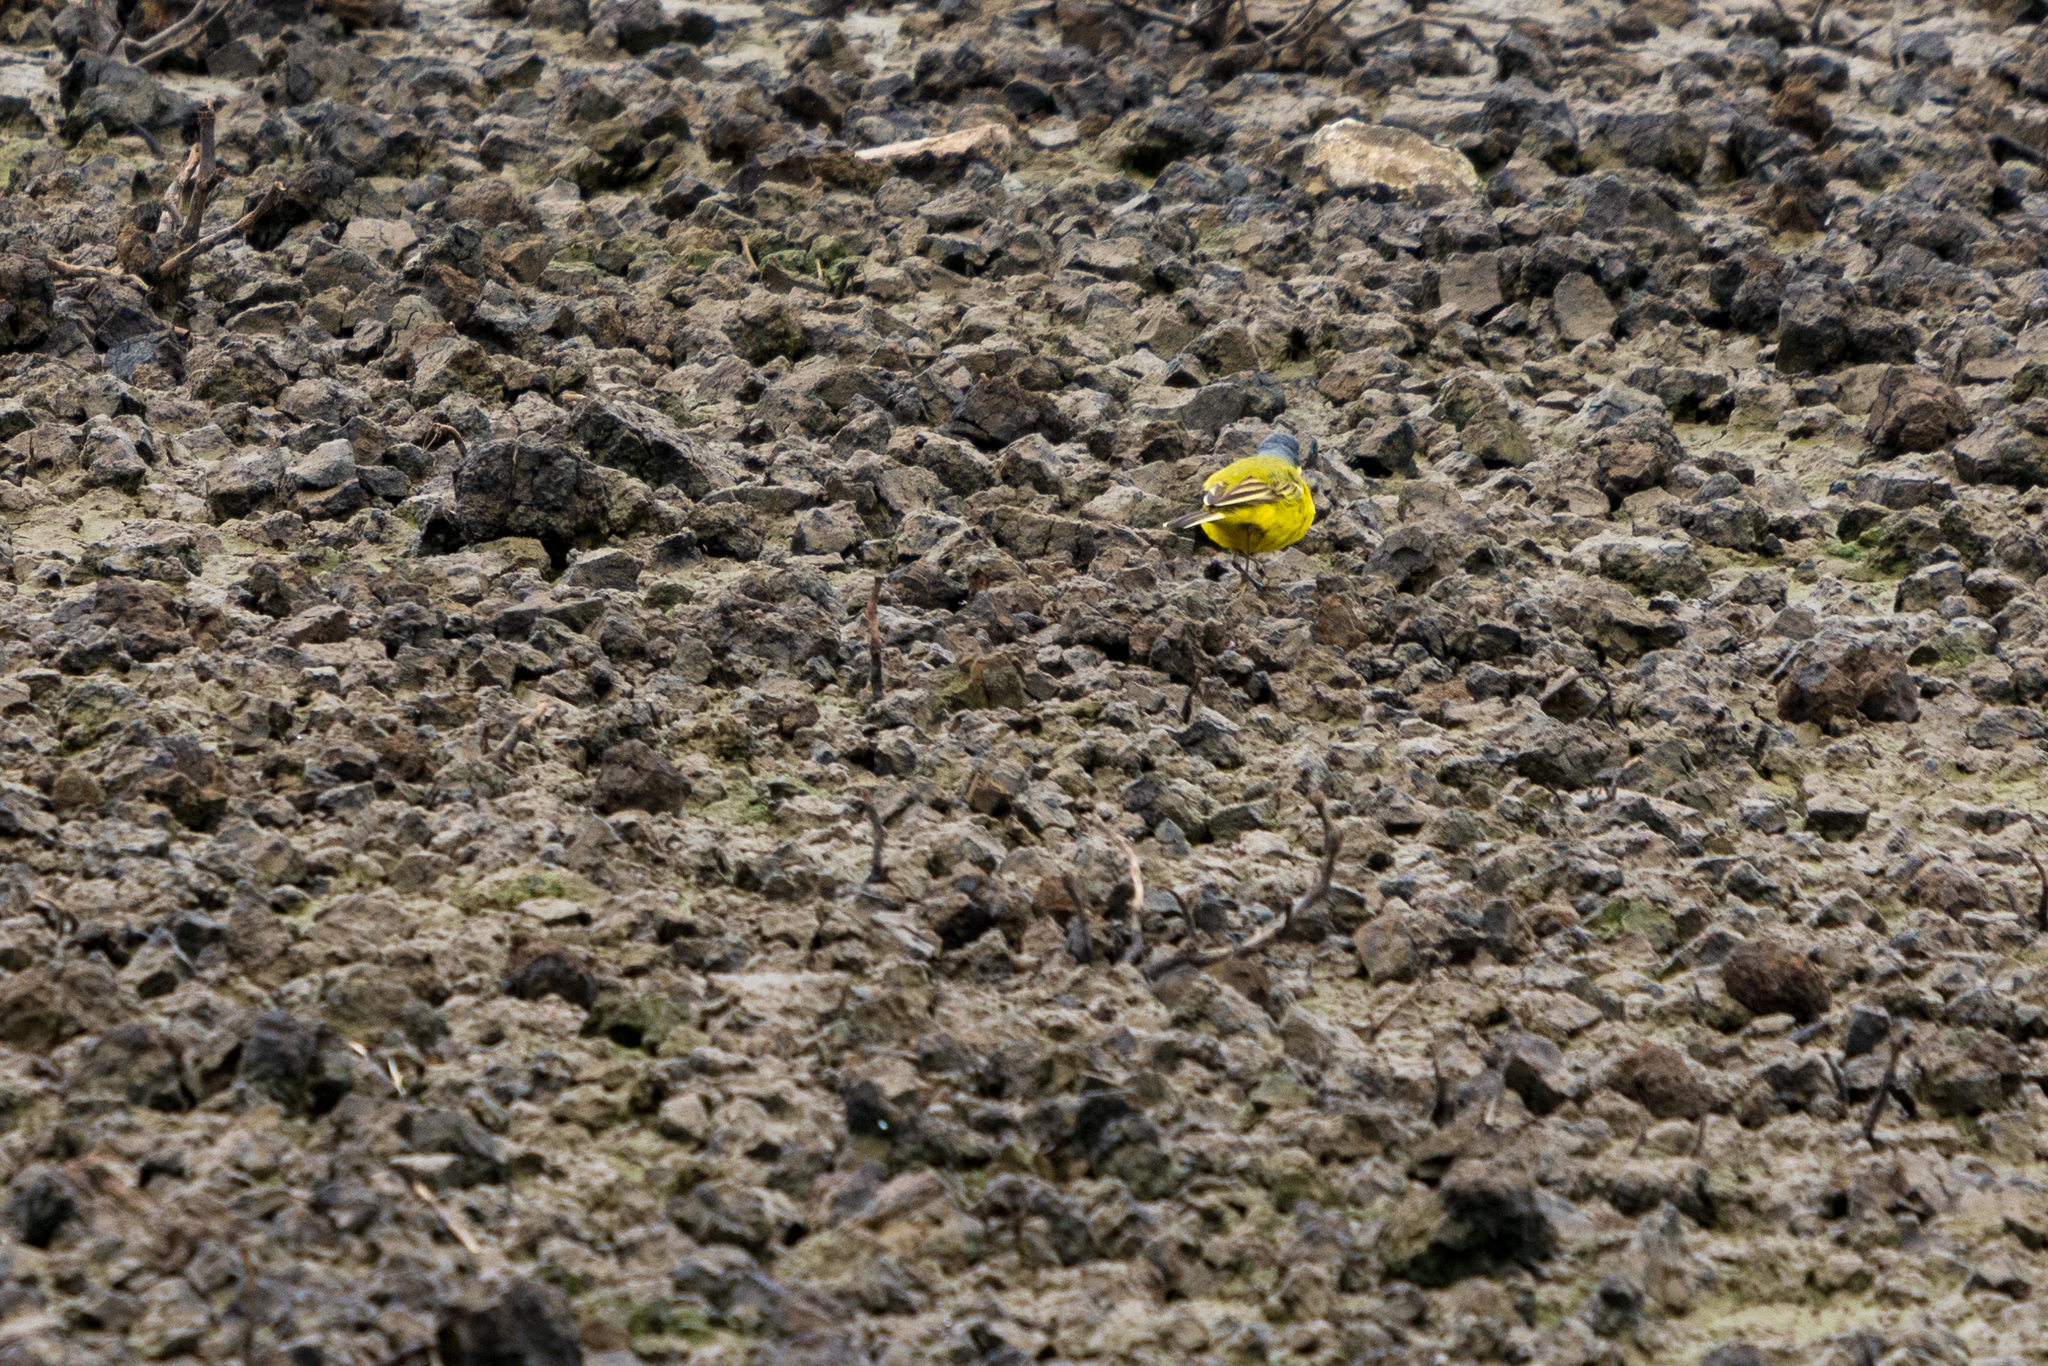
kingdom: Animalia
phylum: Chordata
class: Aves
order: Passeriformes
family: Motacillidae
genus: Motacilla
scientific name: Motacilla flava
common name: Western yellow wagtail
